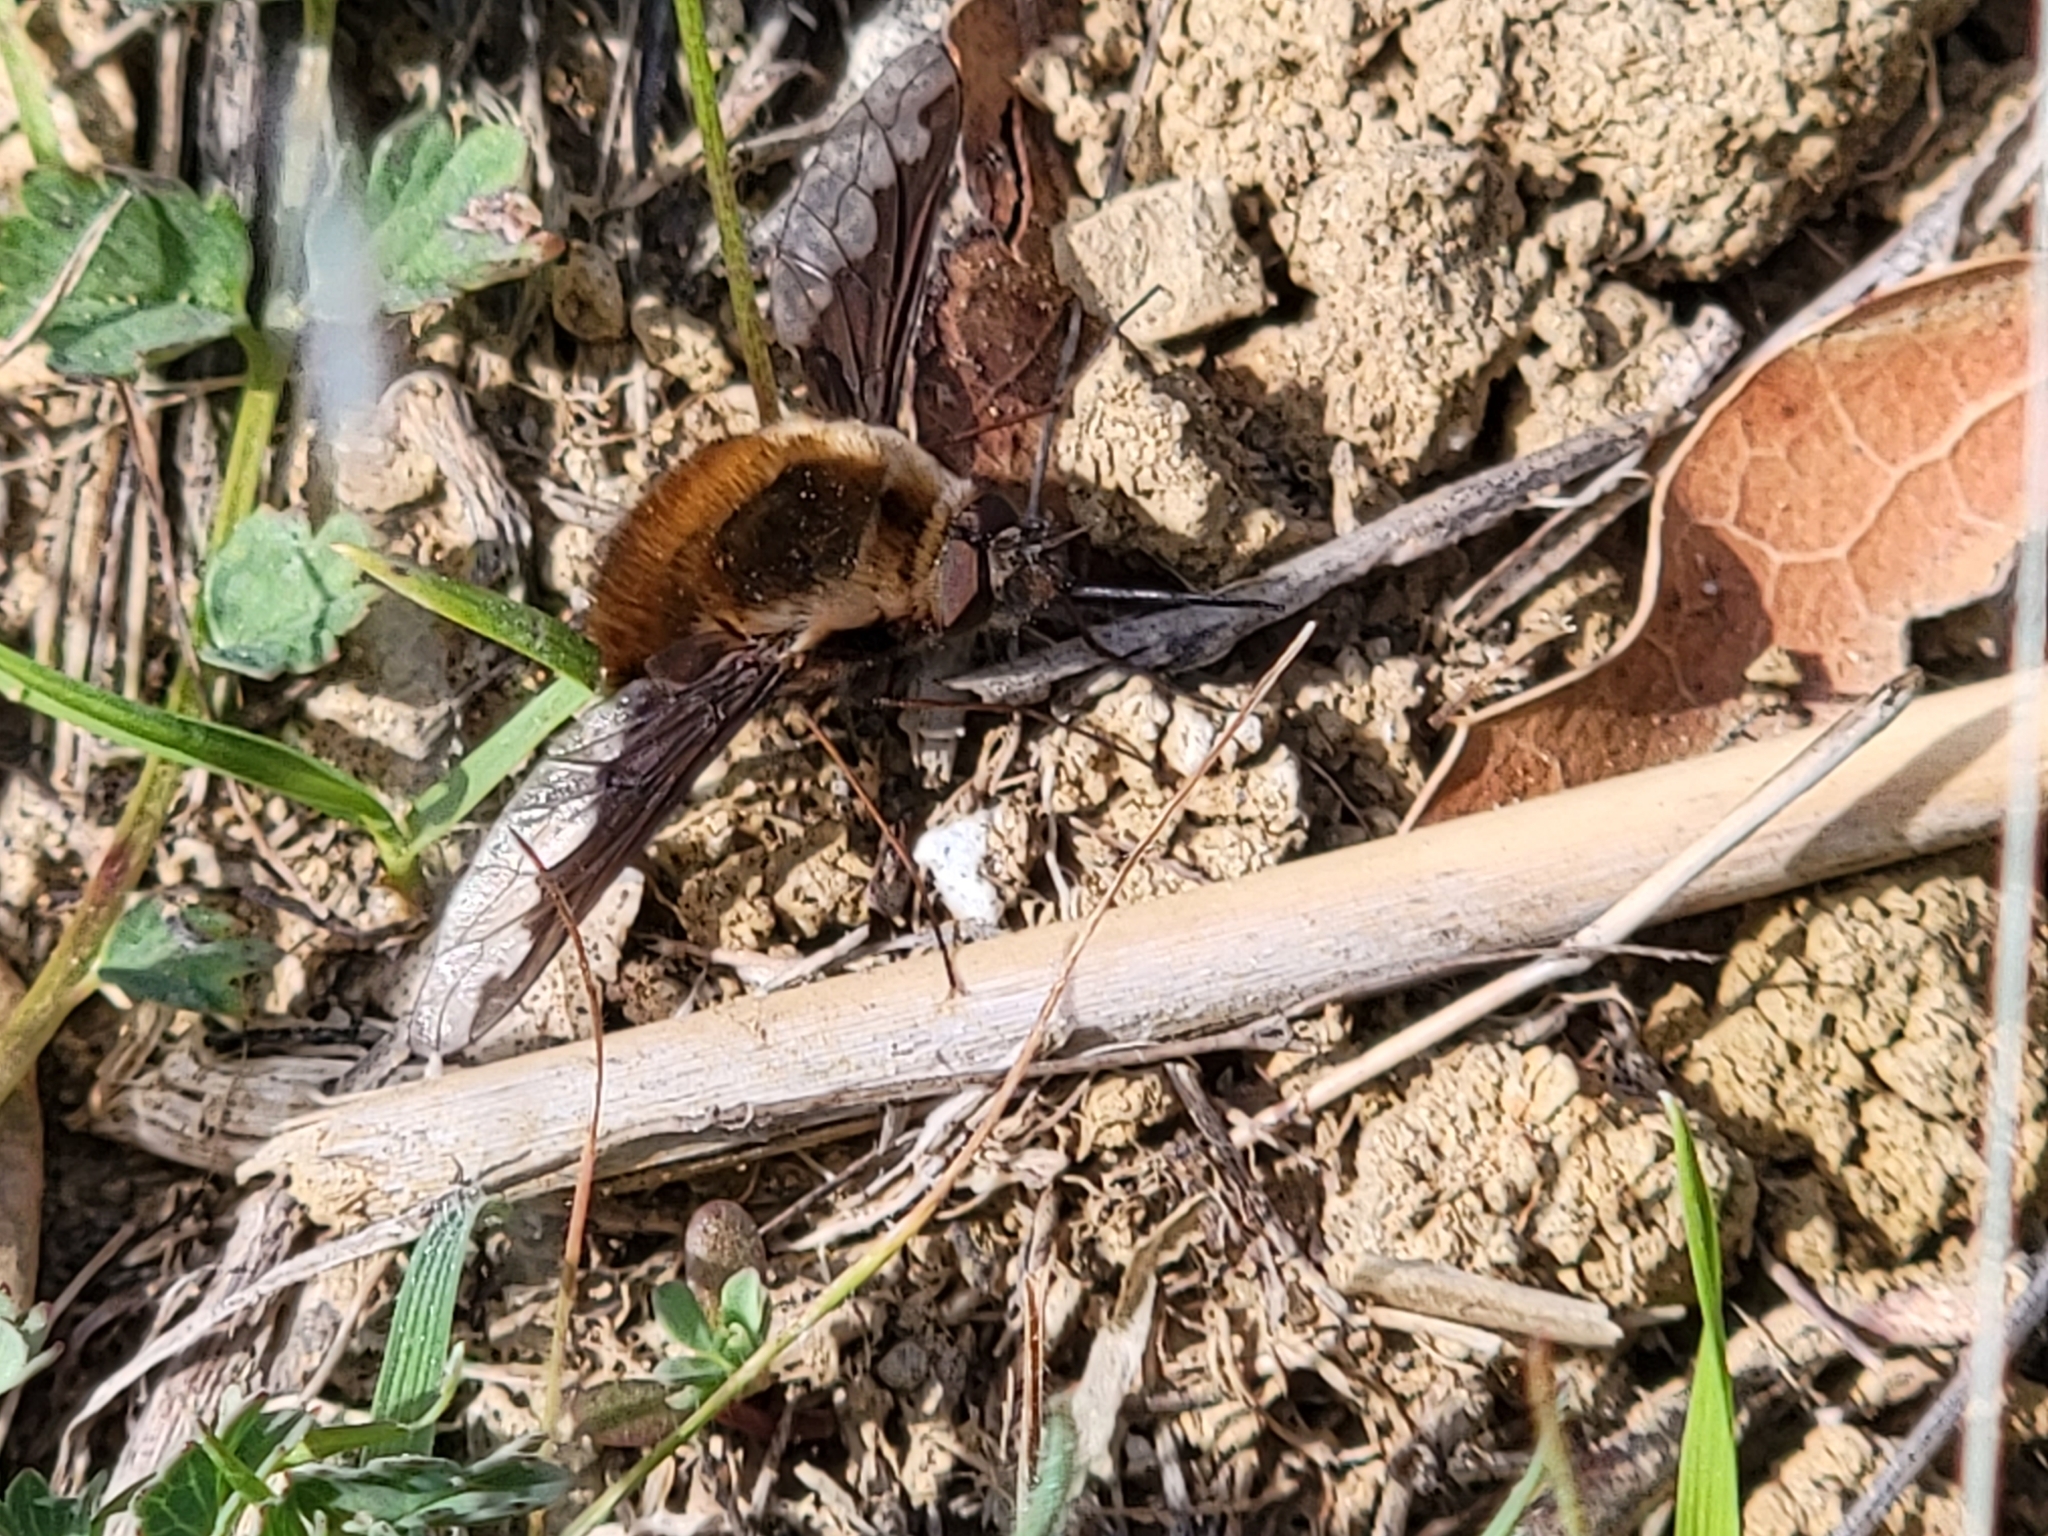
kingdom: Animalia
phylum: Arthropoda
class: Insecta
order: Diptera
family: Bombyliidae
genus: Bombylius
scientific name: Bombylius major
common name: Bee fly
